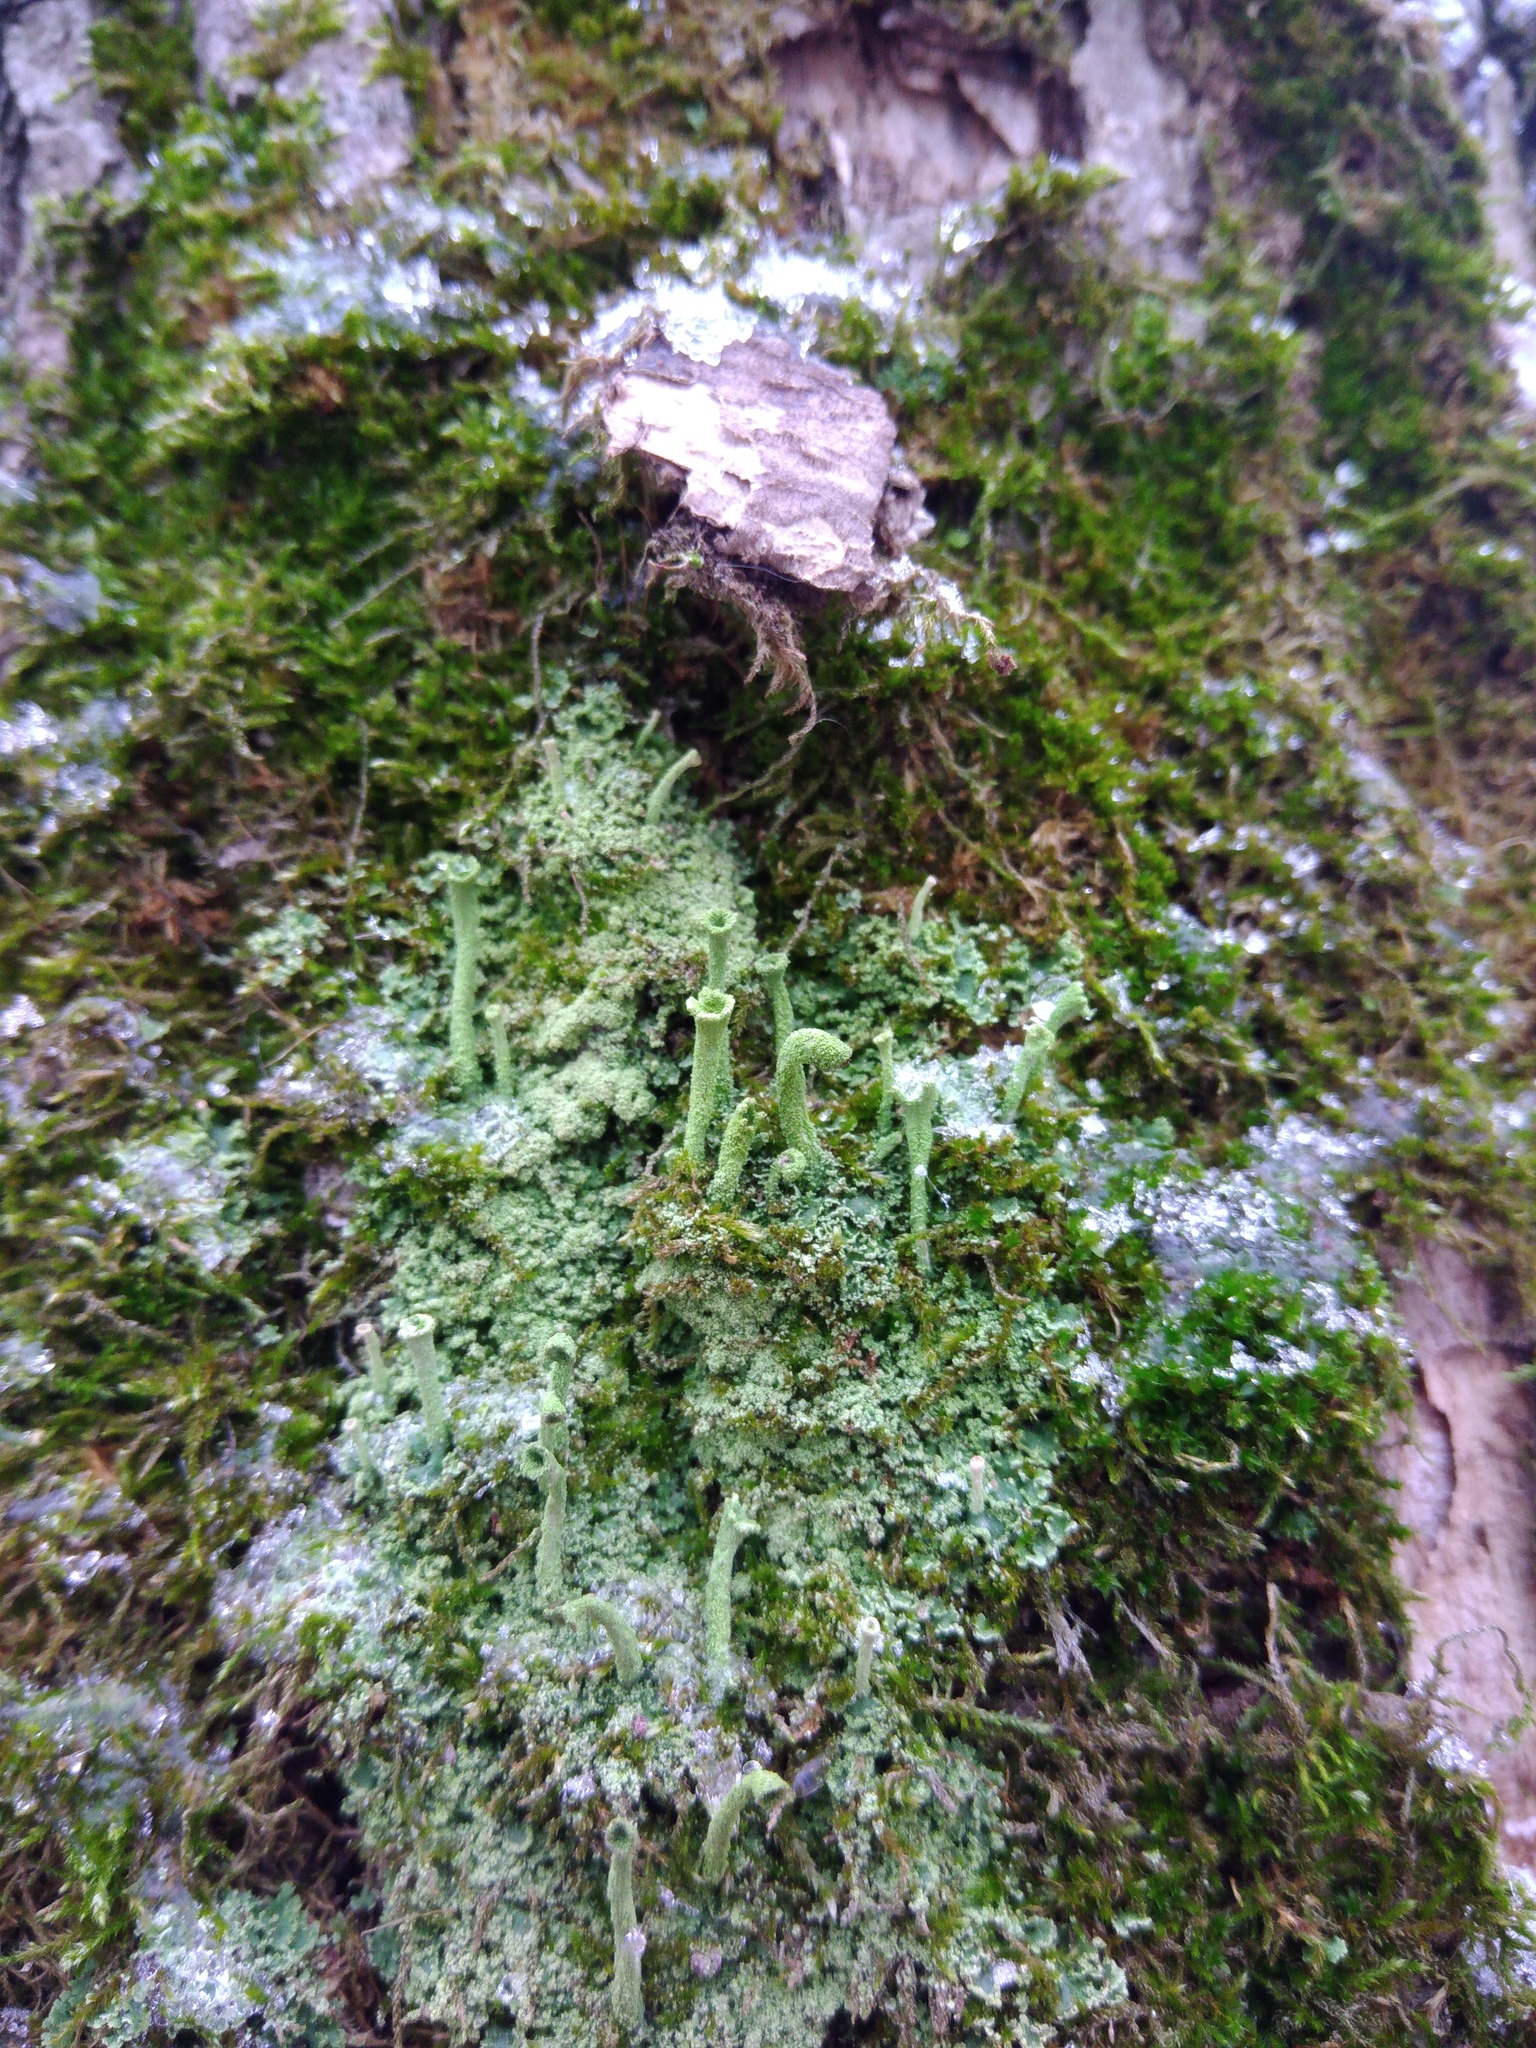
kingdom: Fungi
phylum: Ascomycota
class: Lecanoromycetes
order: Lecanorales
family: Cladoniaceae
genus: Cladonia
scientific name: Cladonia coniocraea
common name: Common powderhorn
